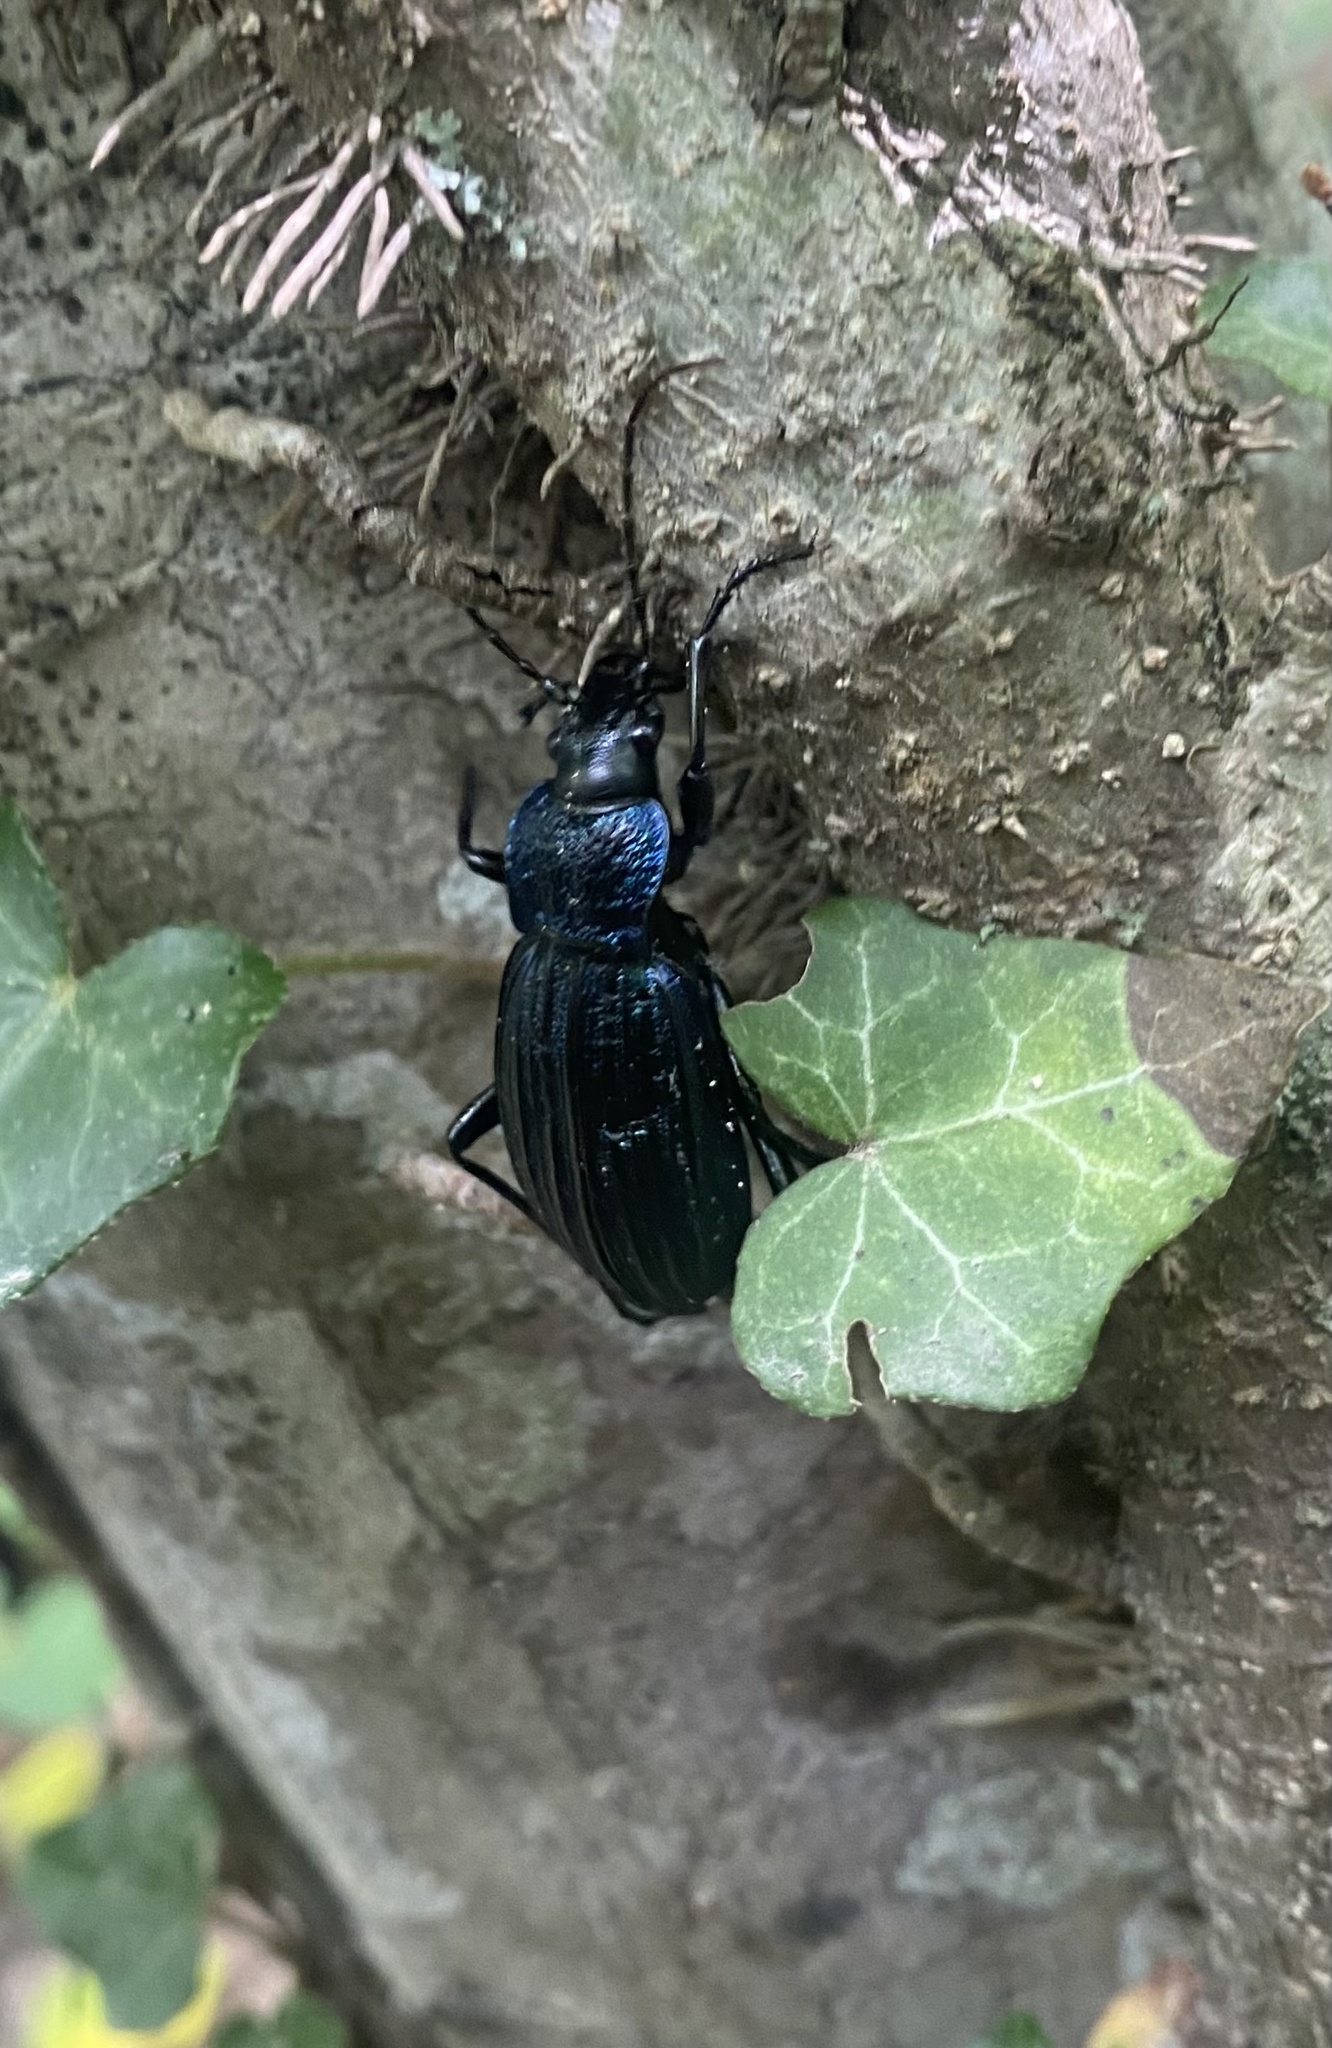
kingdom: Animalia
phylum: Arthropoda
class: Insecta
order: Coleoptera
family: Carabidae
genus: Carabus
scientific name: Carabus exaratus
